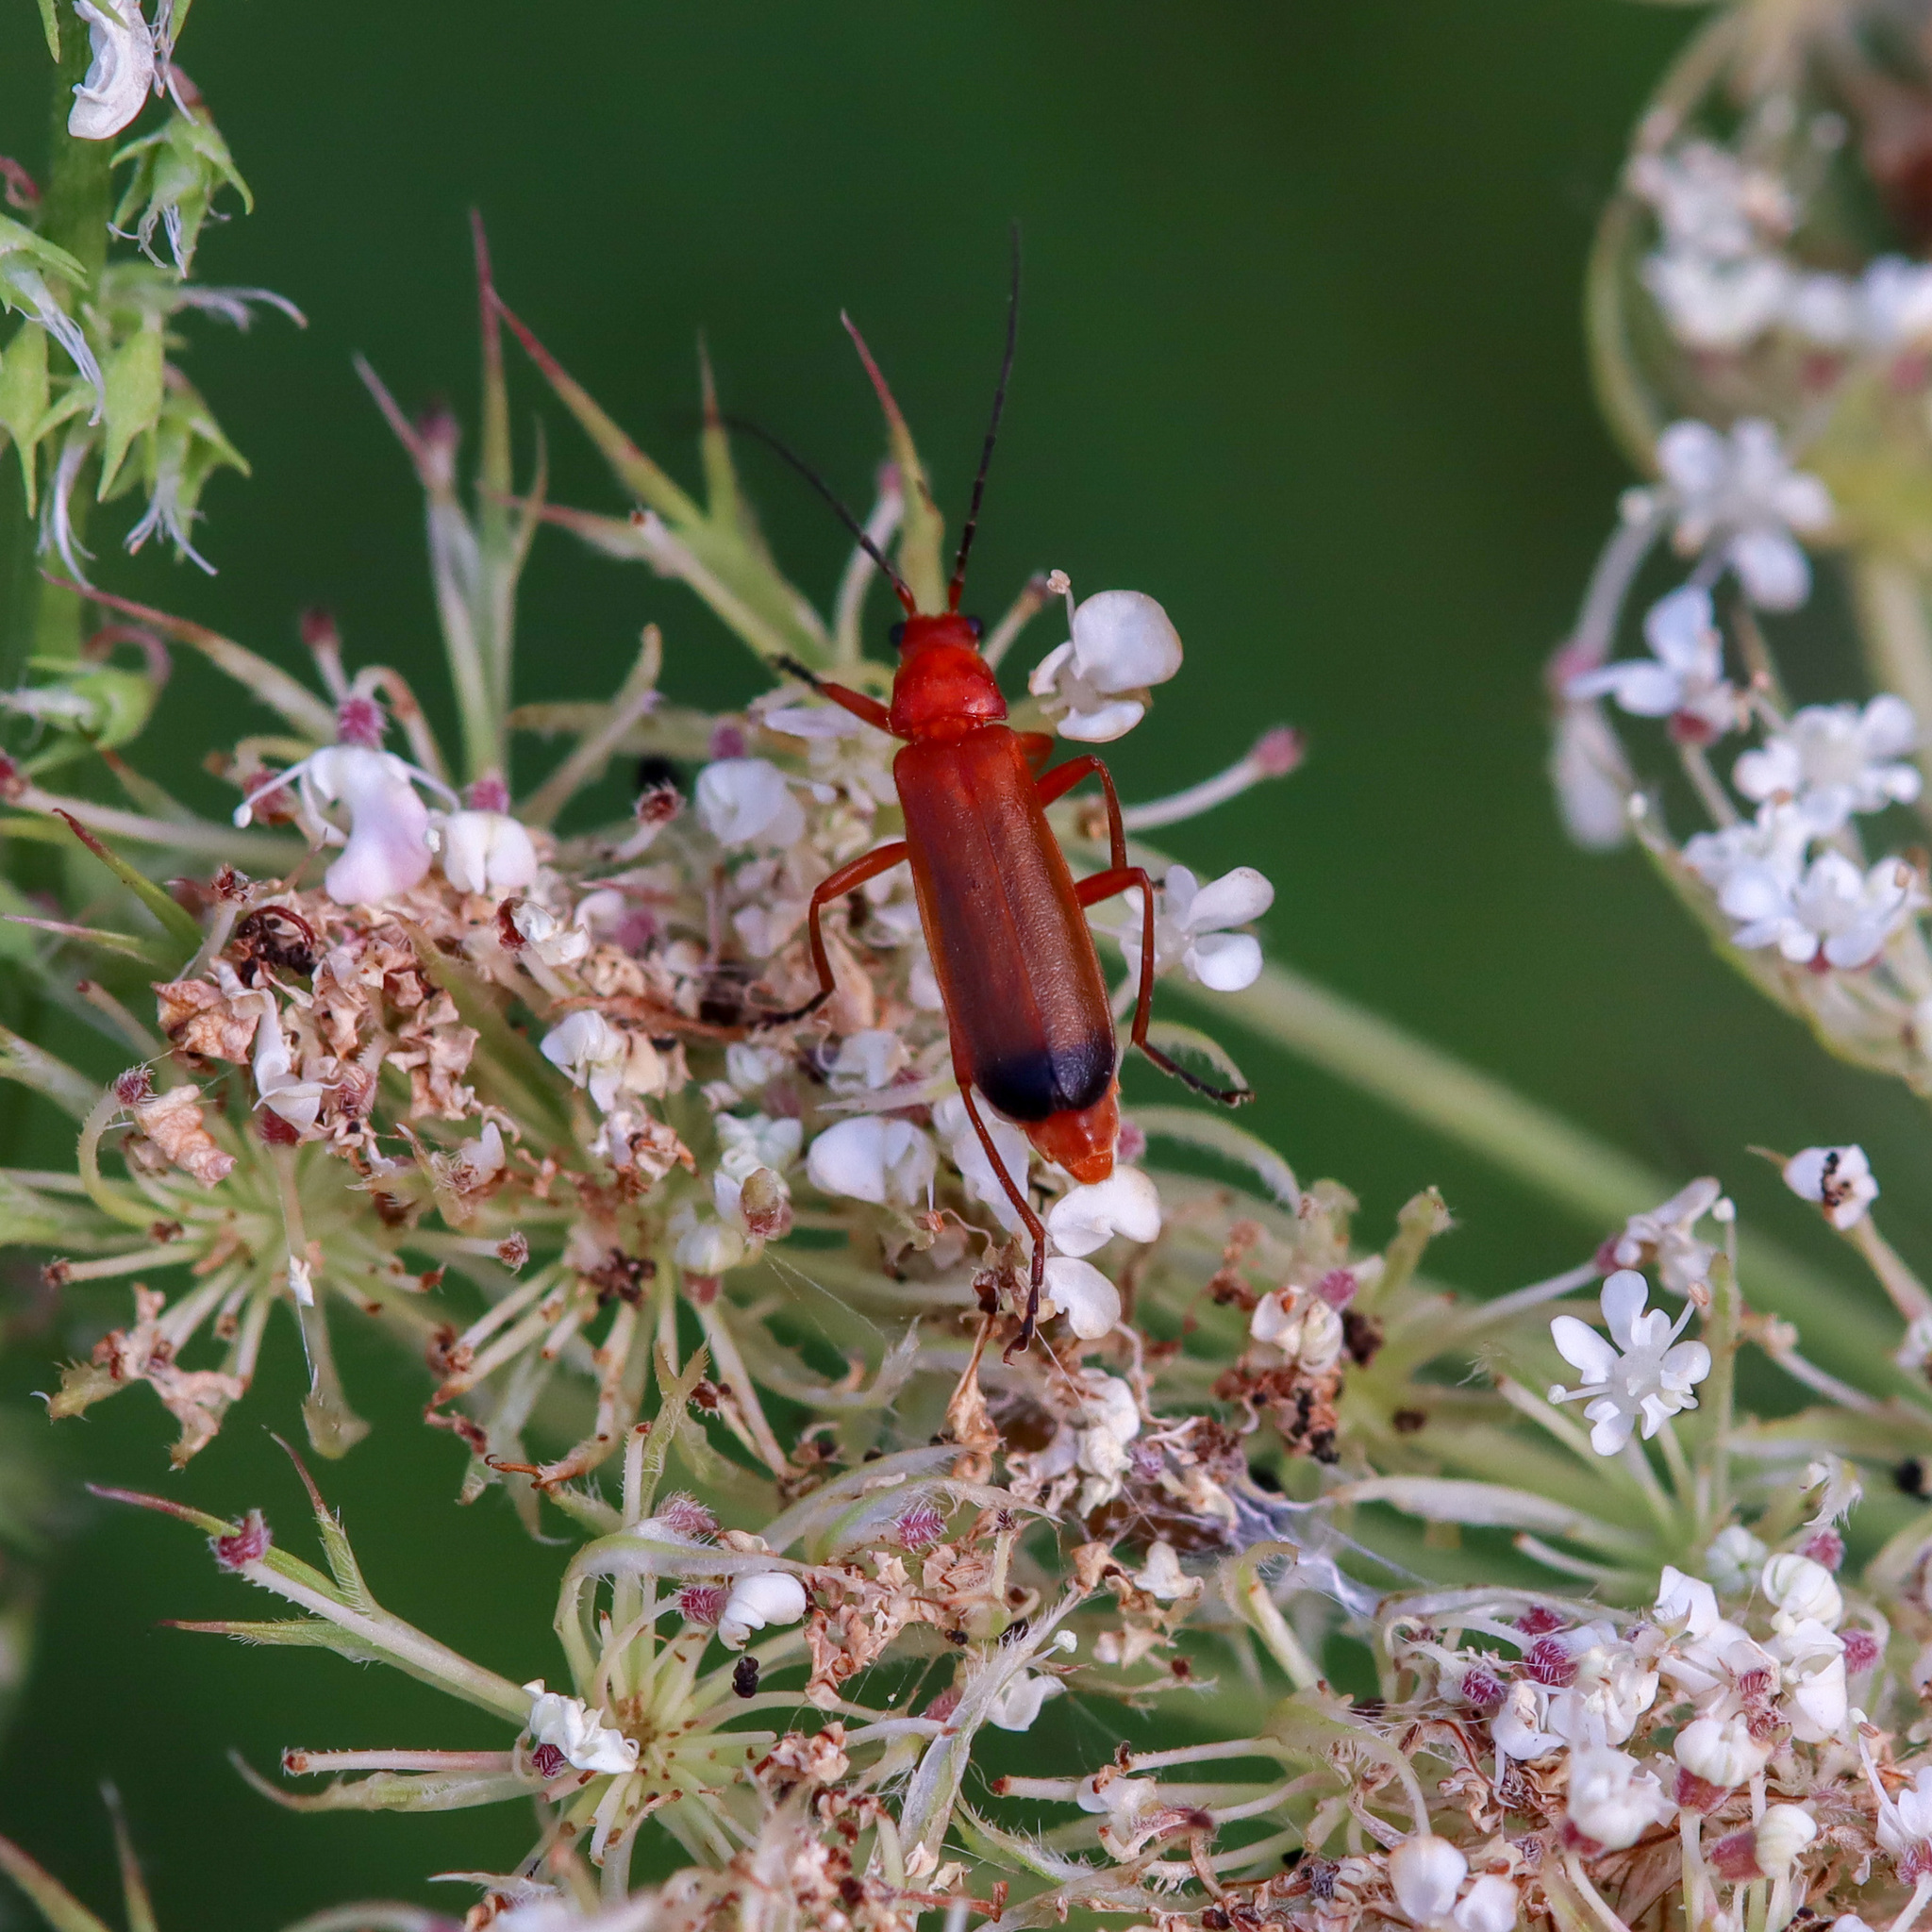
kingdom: Animalia
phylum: Arthropoda
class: Insecta
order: Coleoptera
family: Cantharidae
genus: Rhagonycha
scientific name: Rhagonycha fulva
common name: Common red soldier beetle
